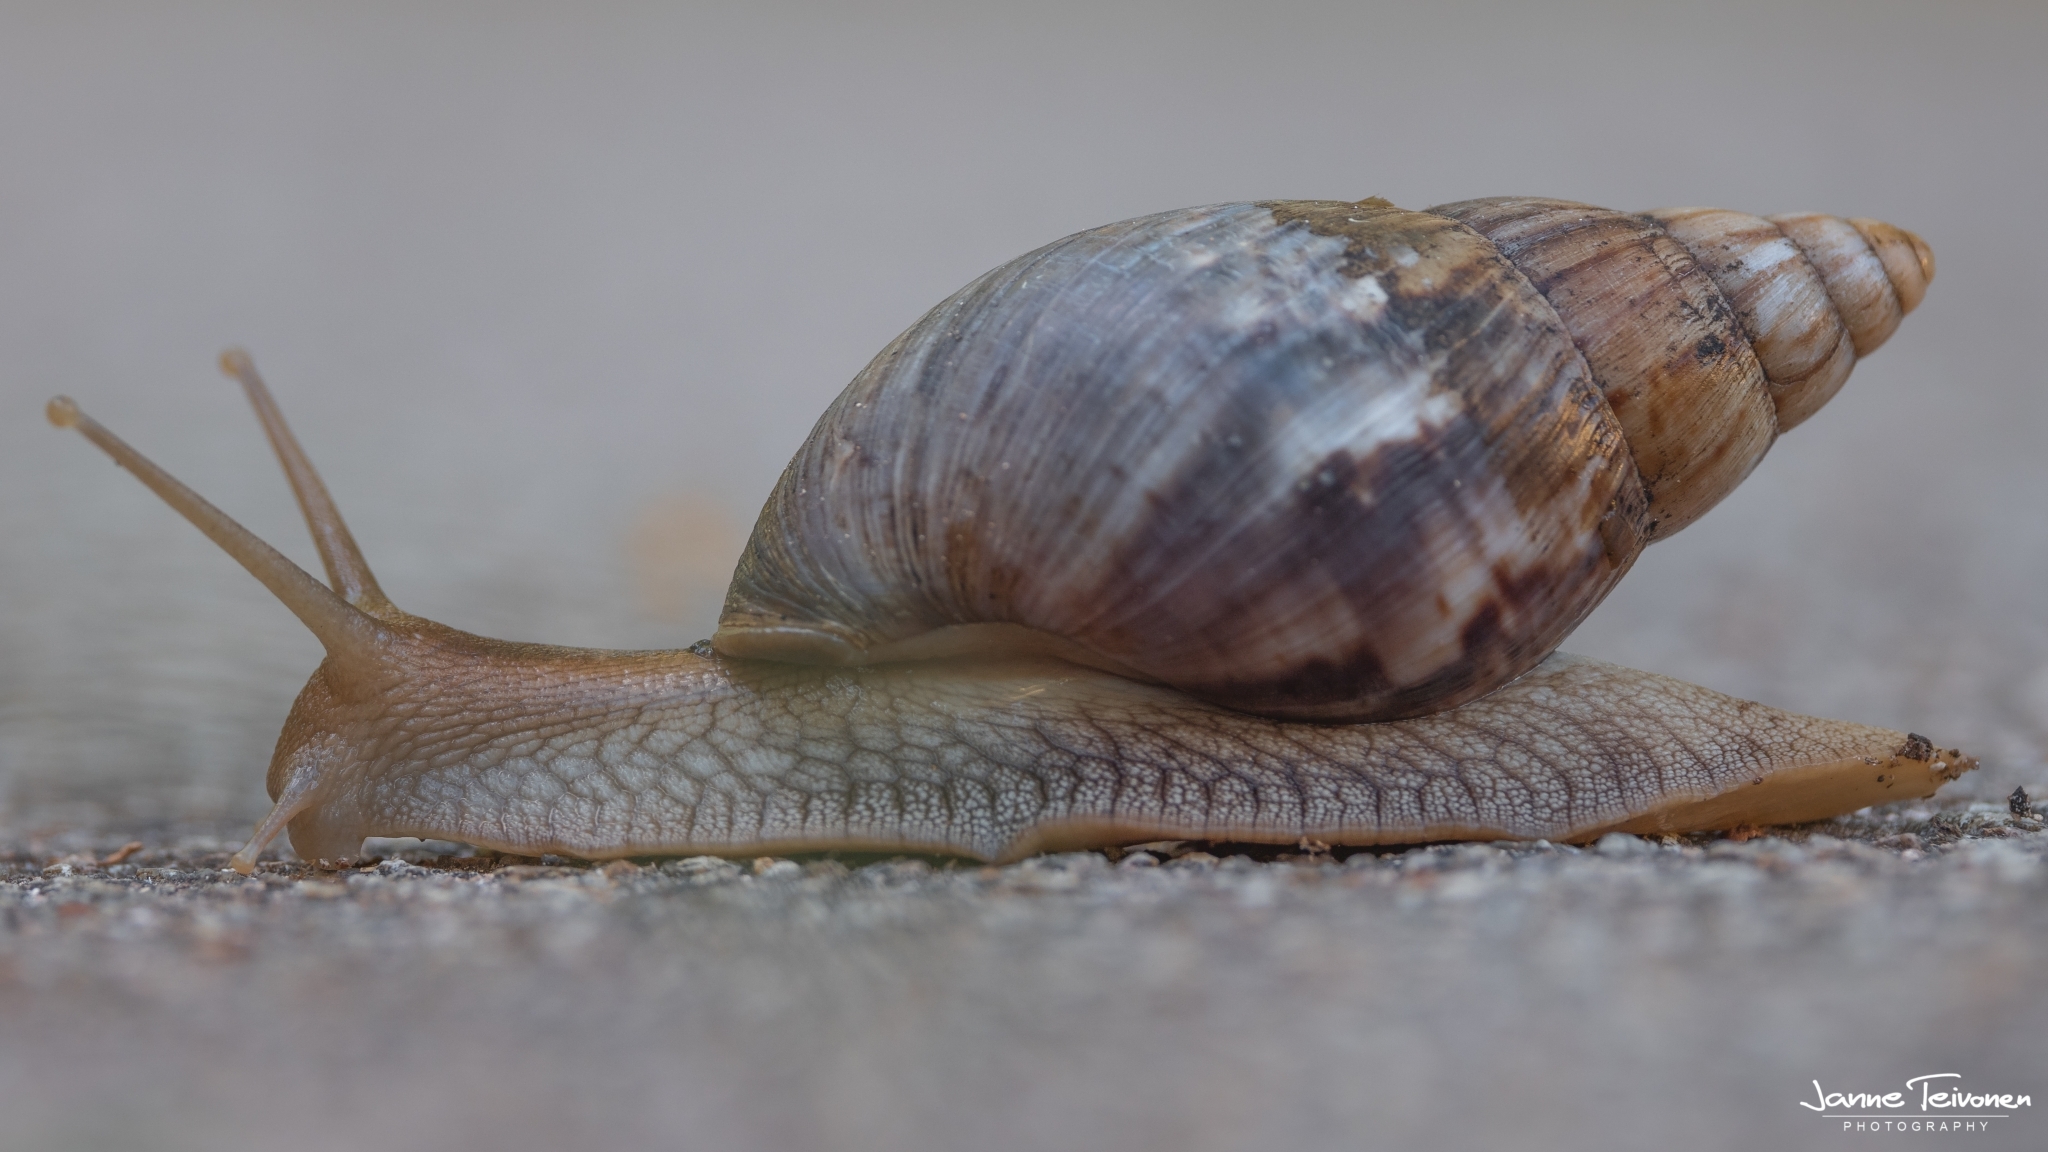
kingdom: Animalia
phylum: Mollusca
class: Gastropoda
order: Stylommatophora
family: Achatinidae
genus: Lissachatina
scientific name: Lissachatina immaculata
